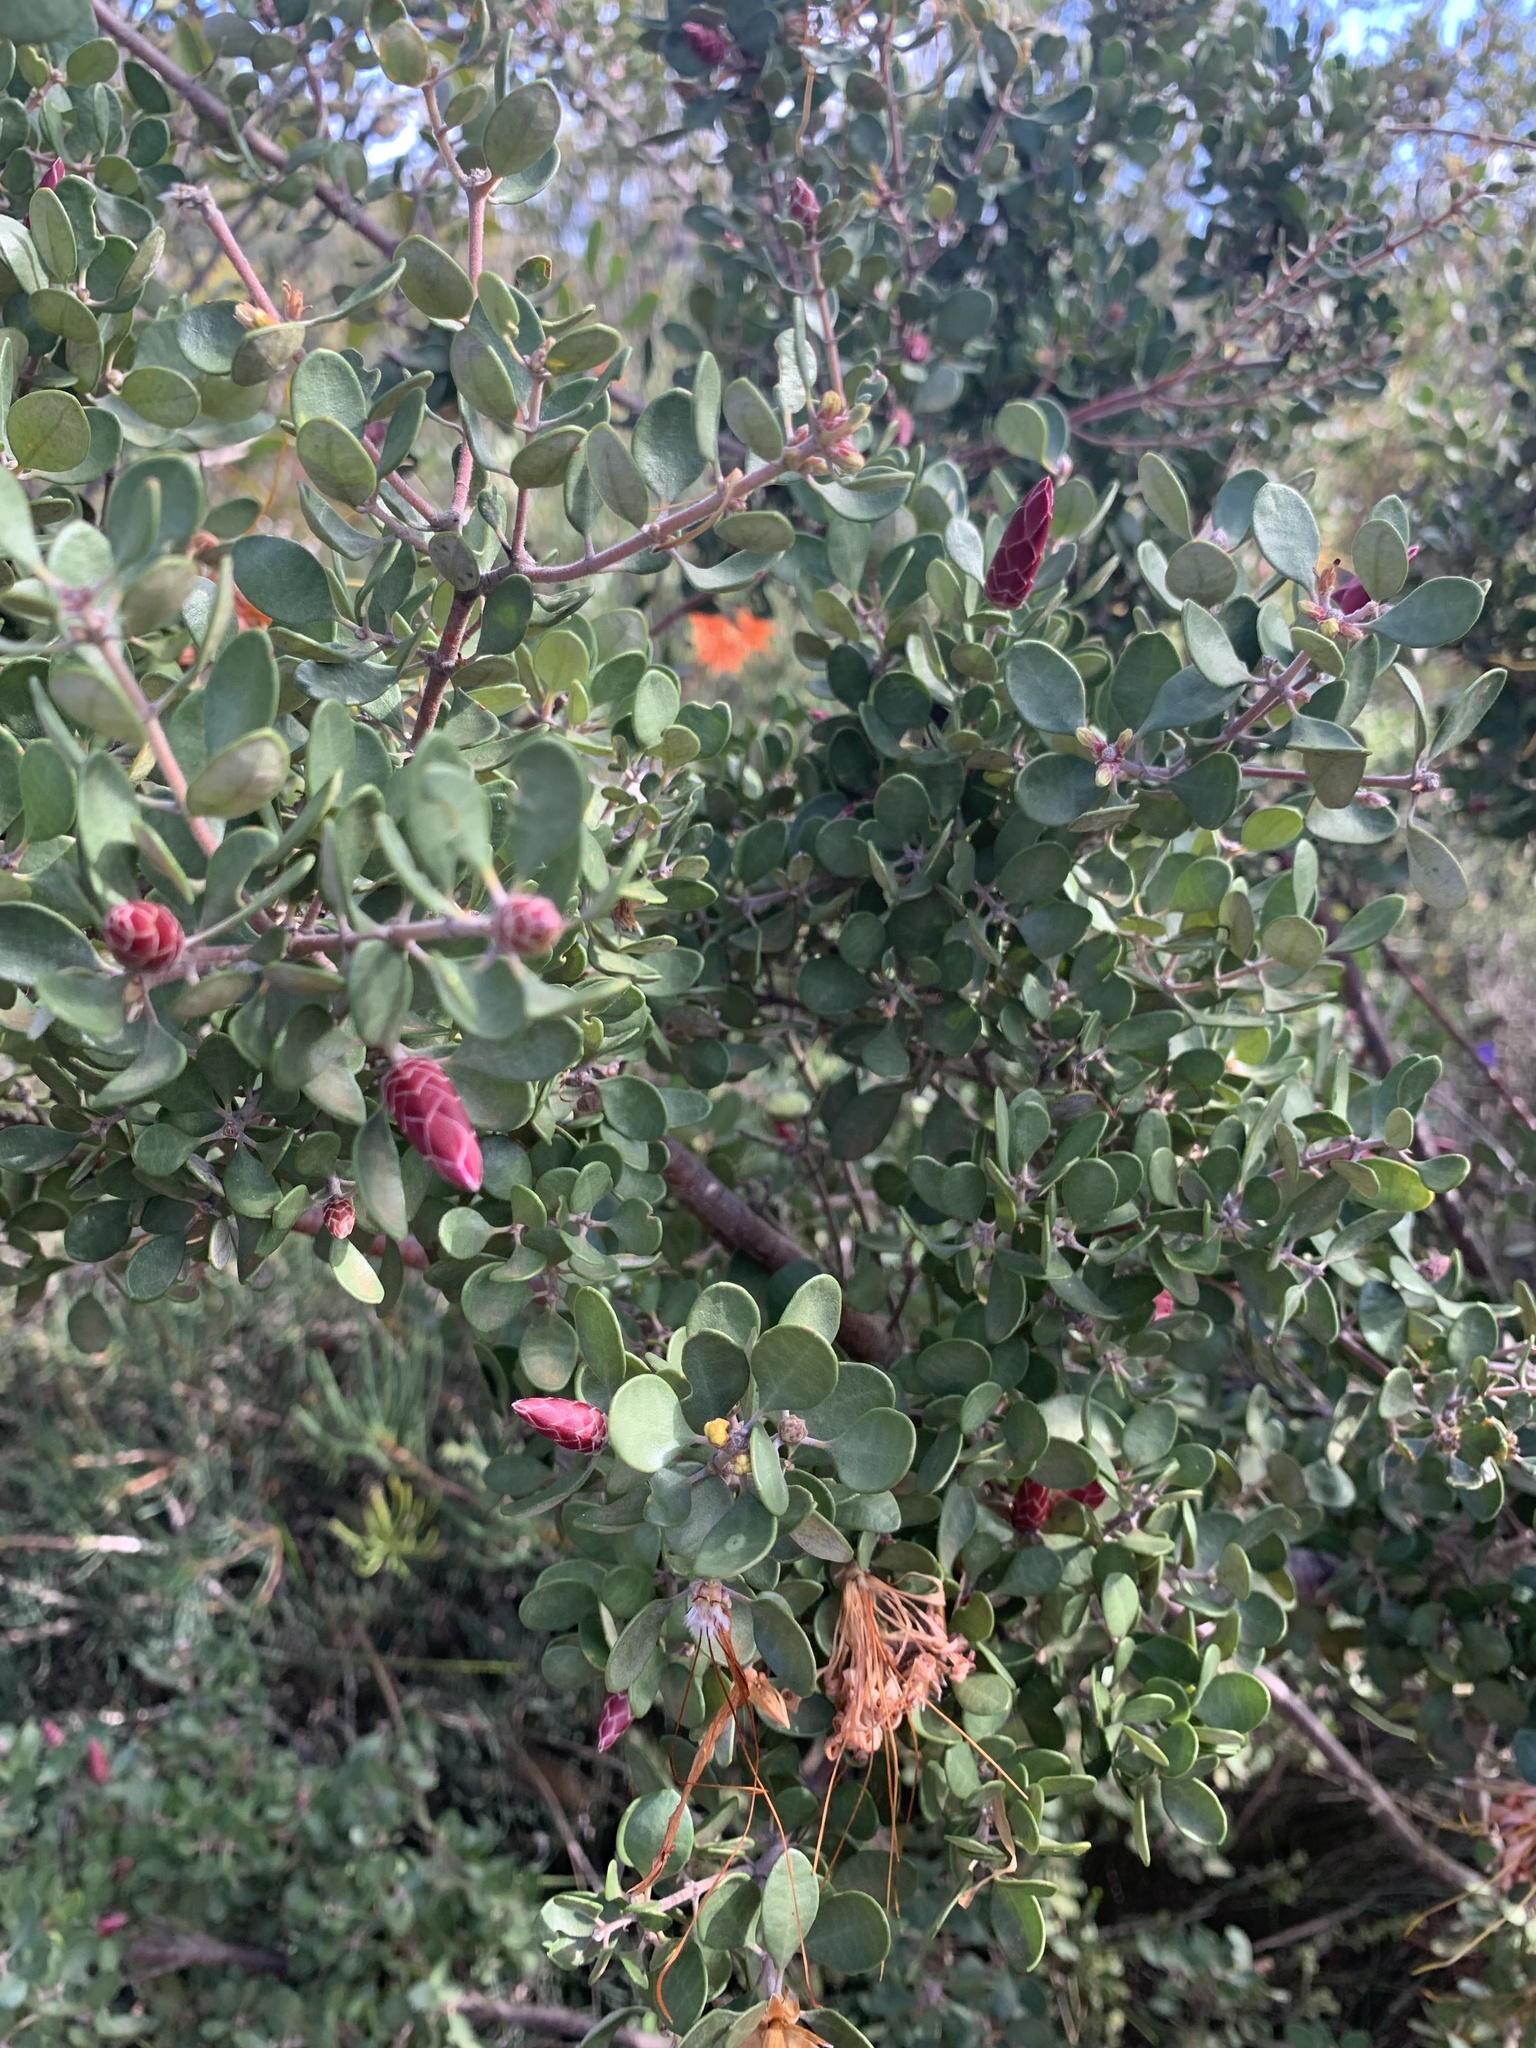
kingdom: Plantae
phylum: Tracheophyta
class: Magnoliopsida
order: Proteales
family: Proteaceae
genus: Lambertia
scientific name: Lambertia inermis
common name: Chittick
